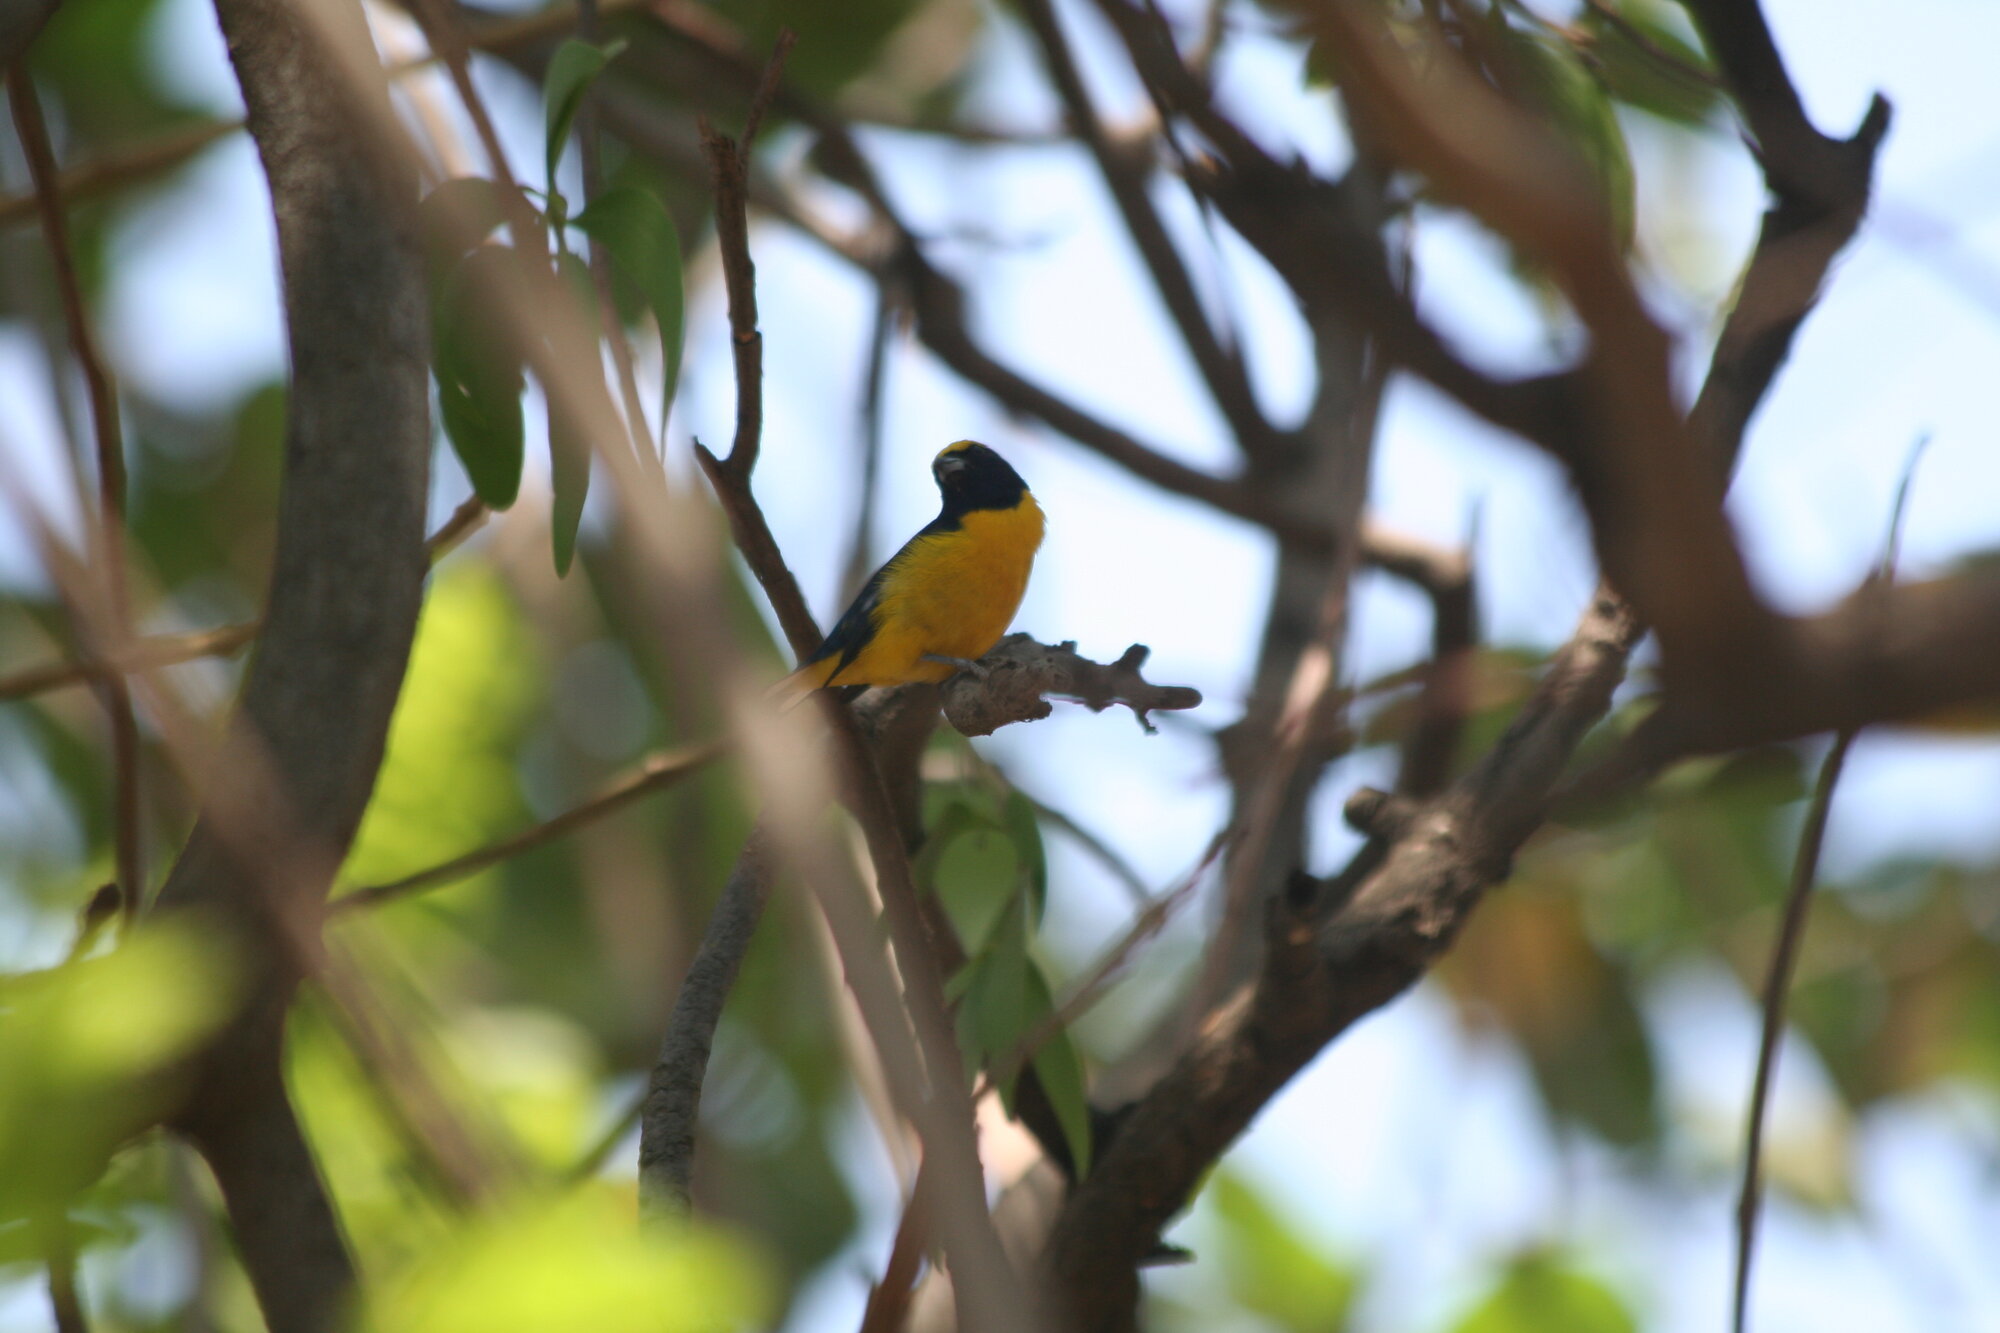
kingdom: Animalia
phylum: Chordata
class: Aves
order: Passeriformes
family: Fringillidae
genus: Euphonia
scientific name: Euphonia affinis
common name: Scrub euphonia
